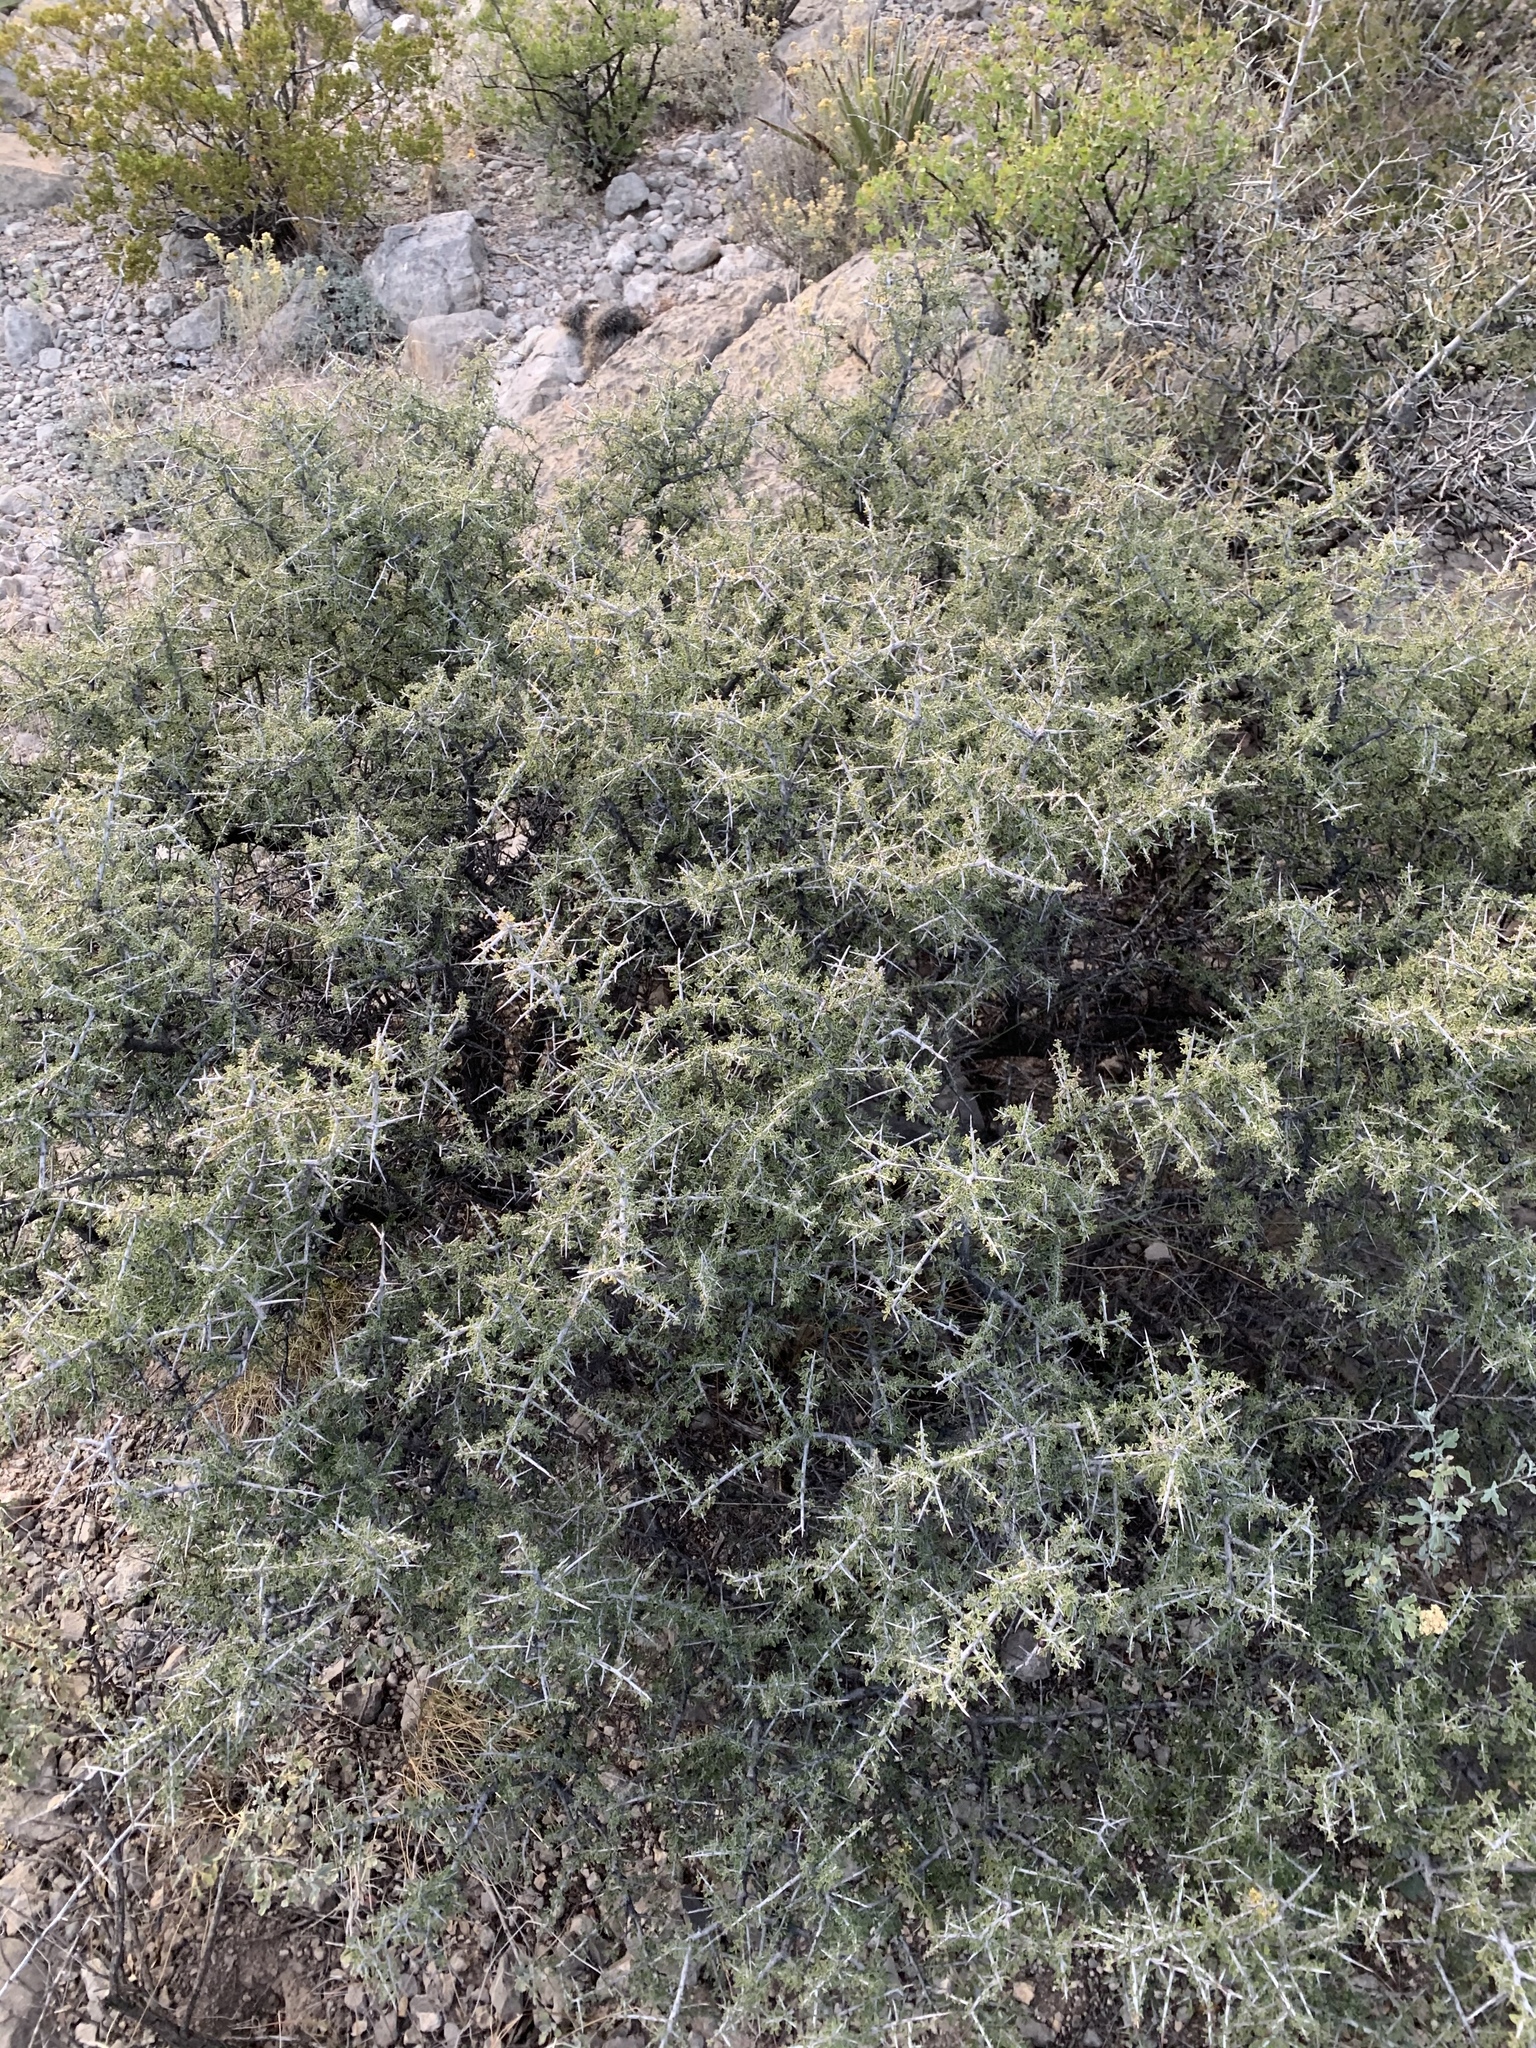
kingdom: Plantae
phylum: Tracheophyta
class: Magnoliopsida
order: Rosales
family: Rhamnaceae
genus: Condalia
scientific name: Condalia warnockii
